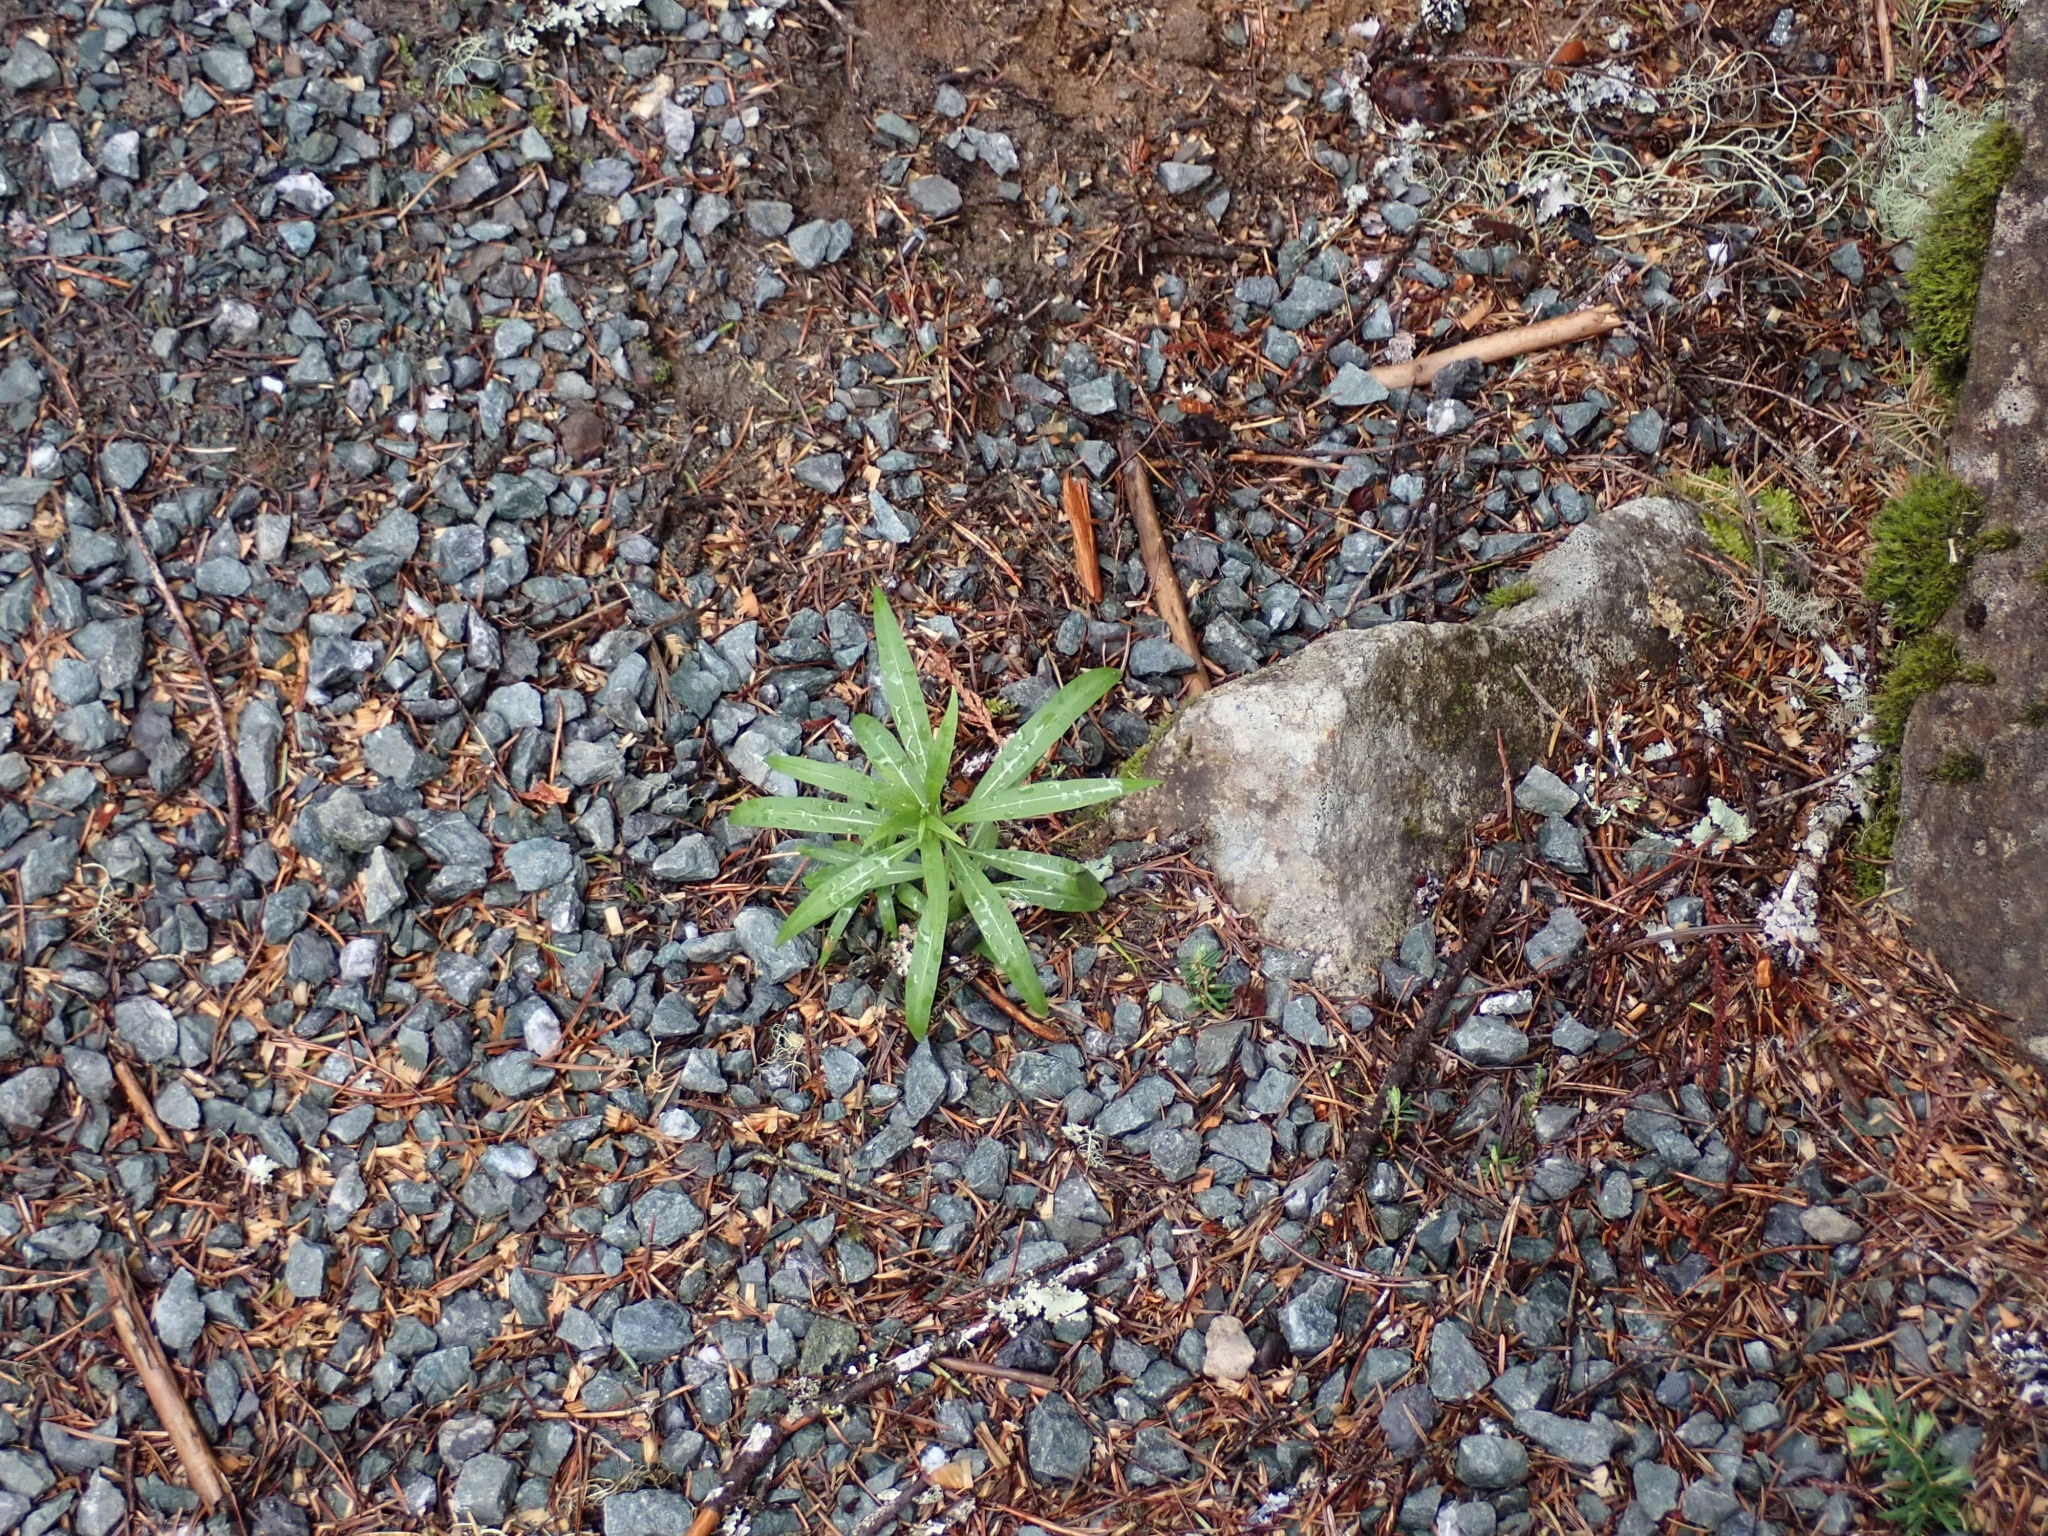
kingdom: Plantae
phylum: Tracheophyta
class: Magnoliopsida
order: Myrtales
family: Onagraceae
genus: Chamaenerion
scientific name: Chamaenerion angustifolium
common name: Fireweed
